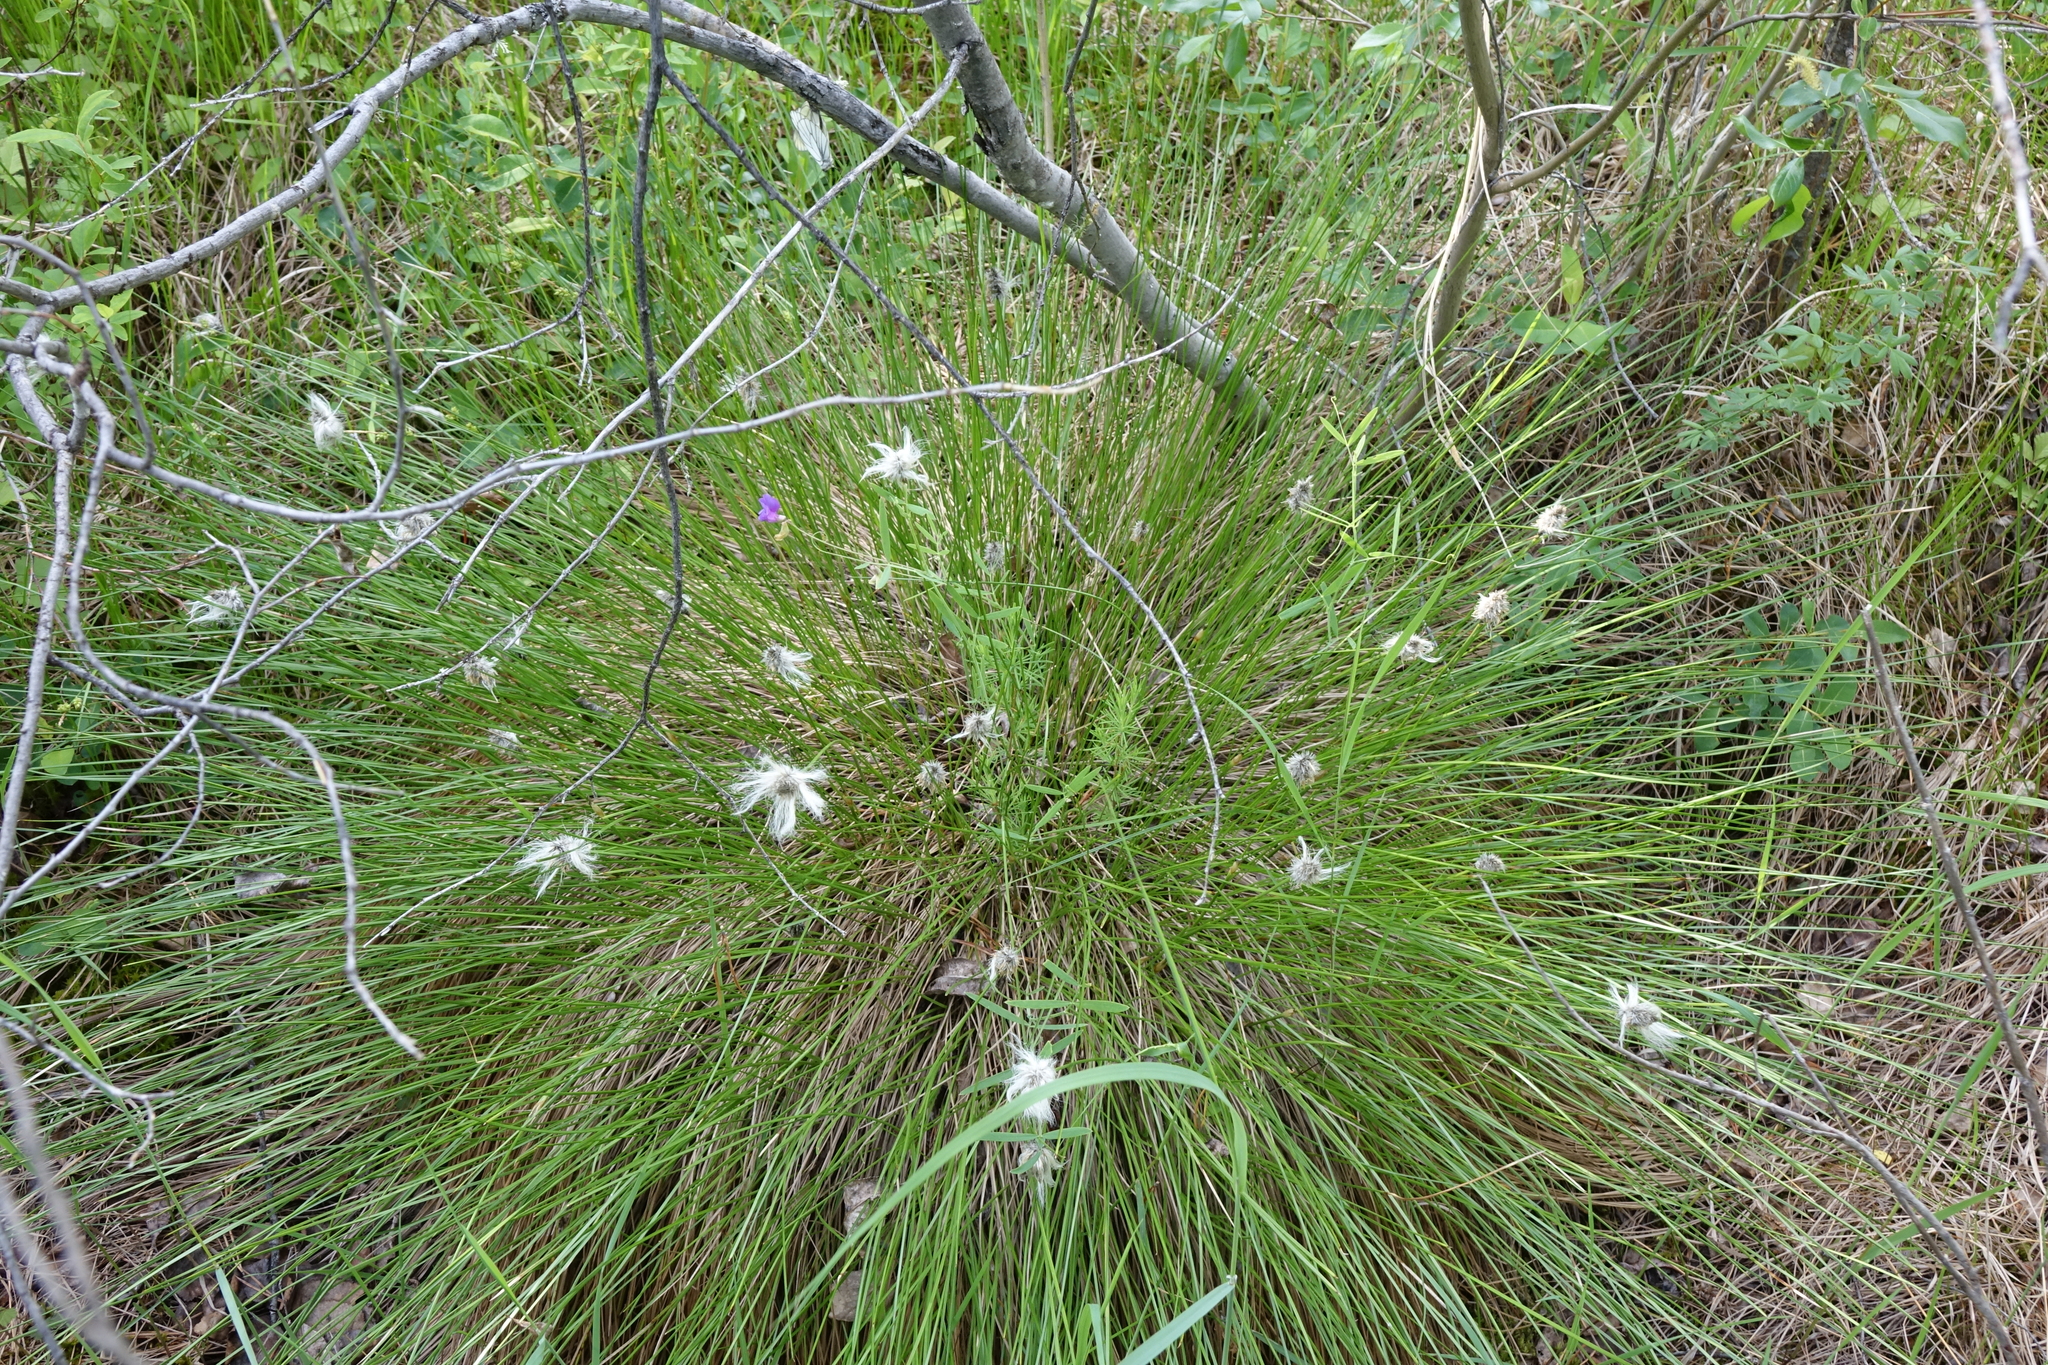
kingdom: Plantae
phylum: Tracheophyta
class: Magnoliopsida
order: Fabales
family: Fabaceae
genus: Lathyrus
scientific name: Lathyrus palustris
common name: Marsh pea
